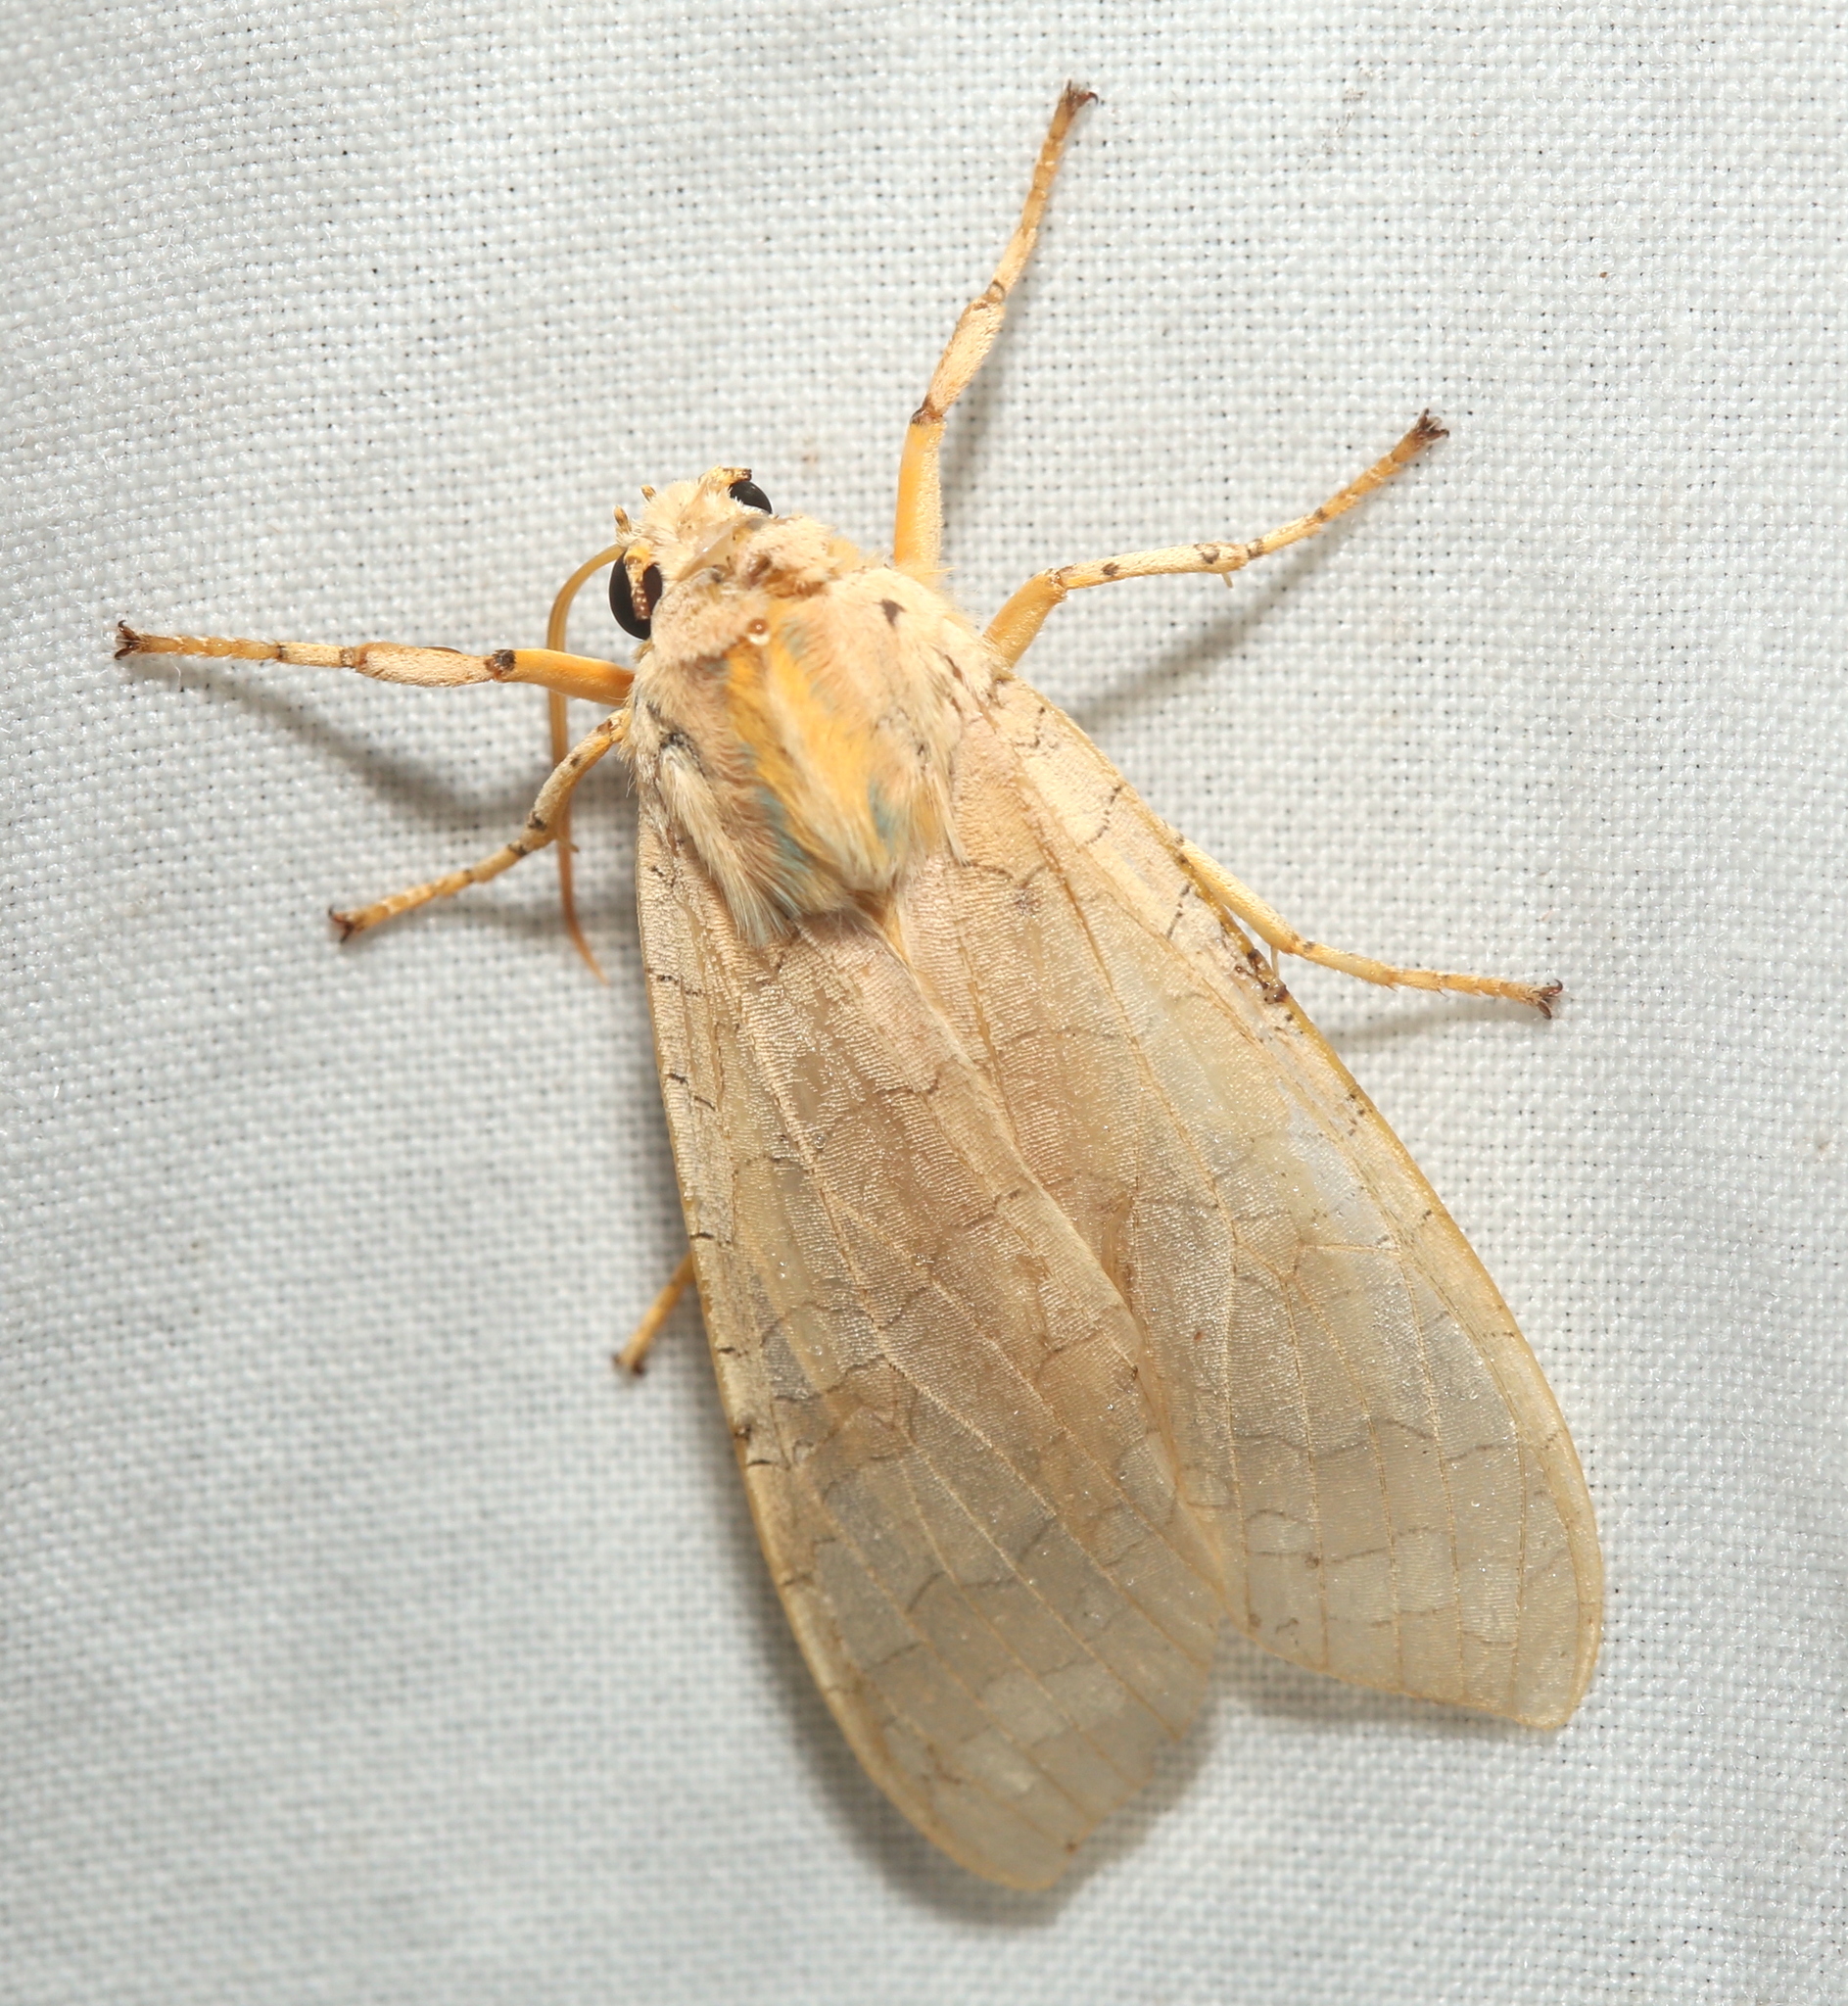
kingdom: Animalia
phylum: Arthropoda
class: Insecta
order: Lepidoptera
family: Erebidae
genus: Halysidota
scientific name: Halysidota
